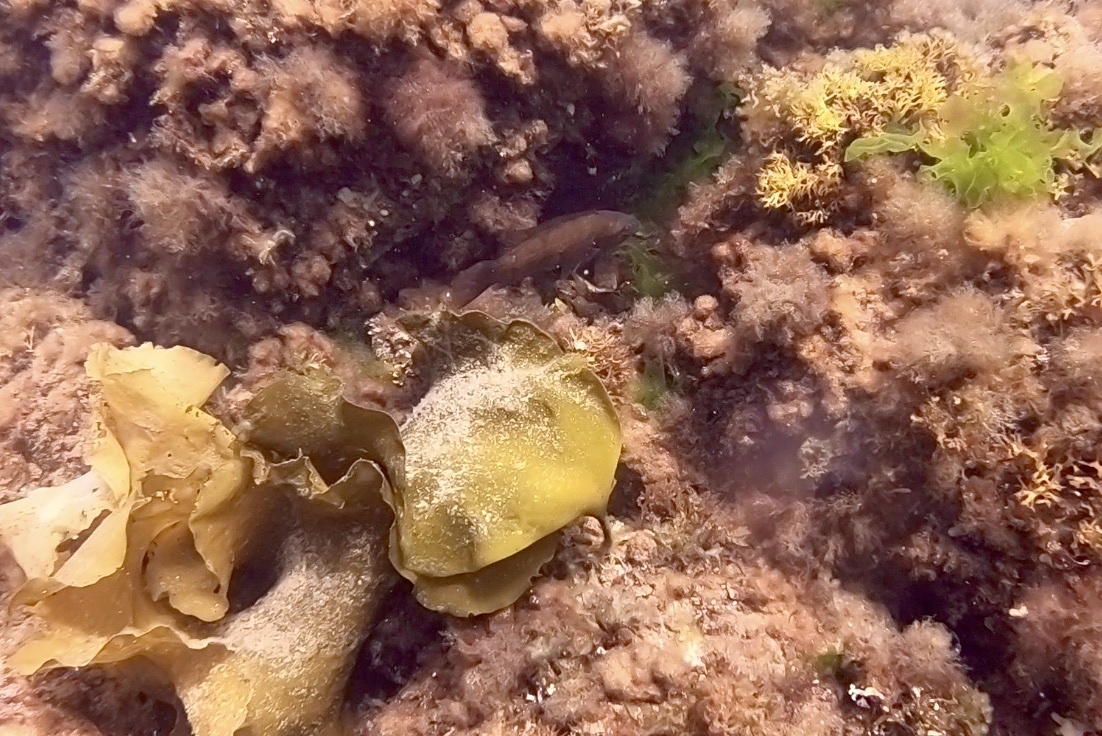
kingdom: Animalia
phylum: Chordata
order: Perciformes
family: Labridae
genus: Tautogolabrus
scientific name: Tautogolabrus adspersus
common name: Cunner
